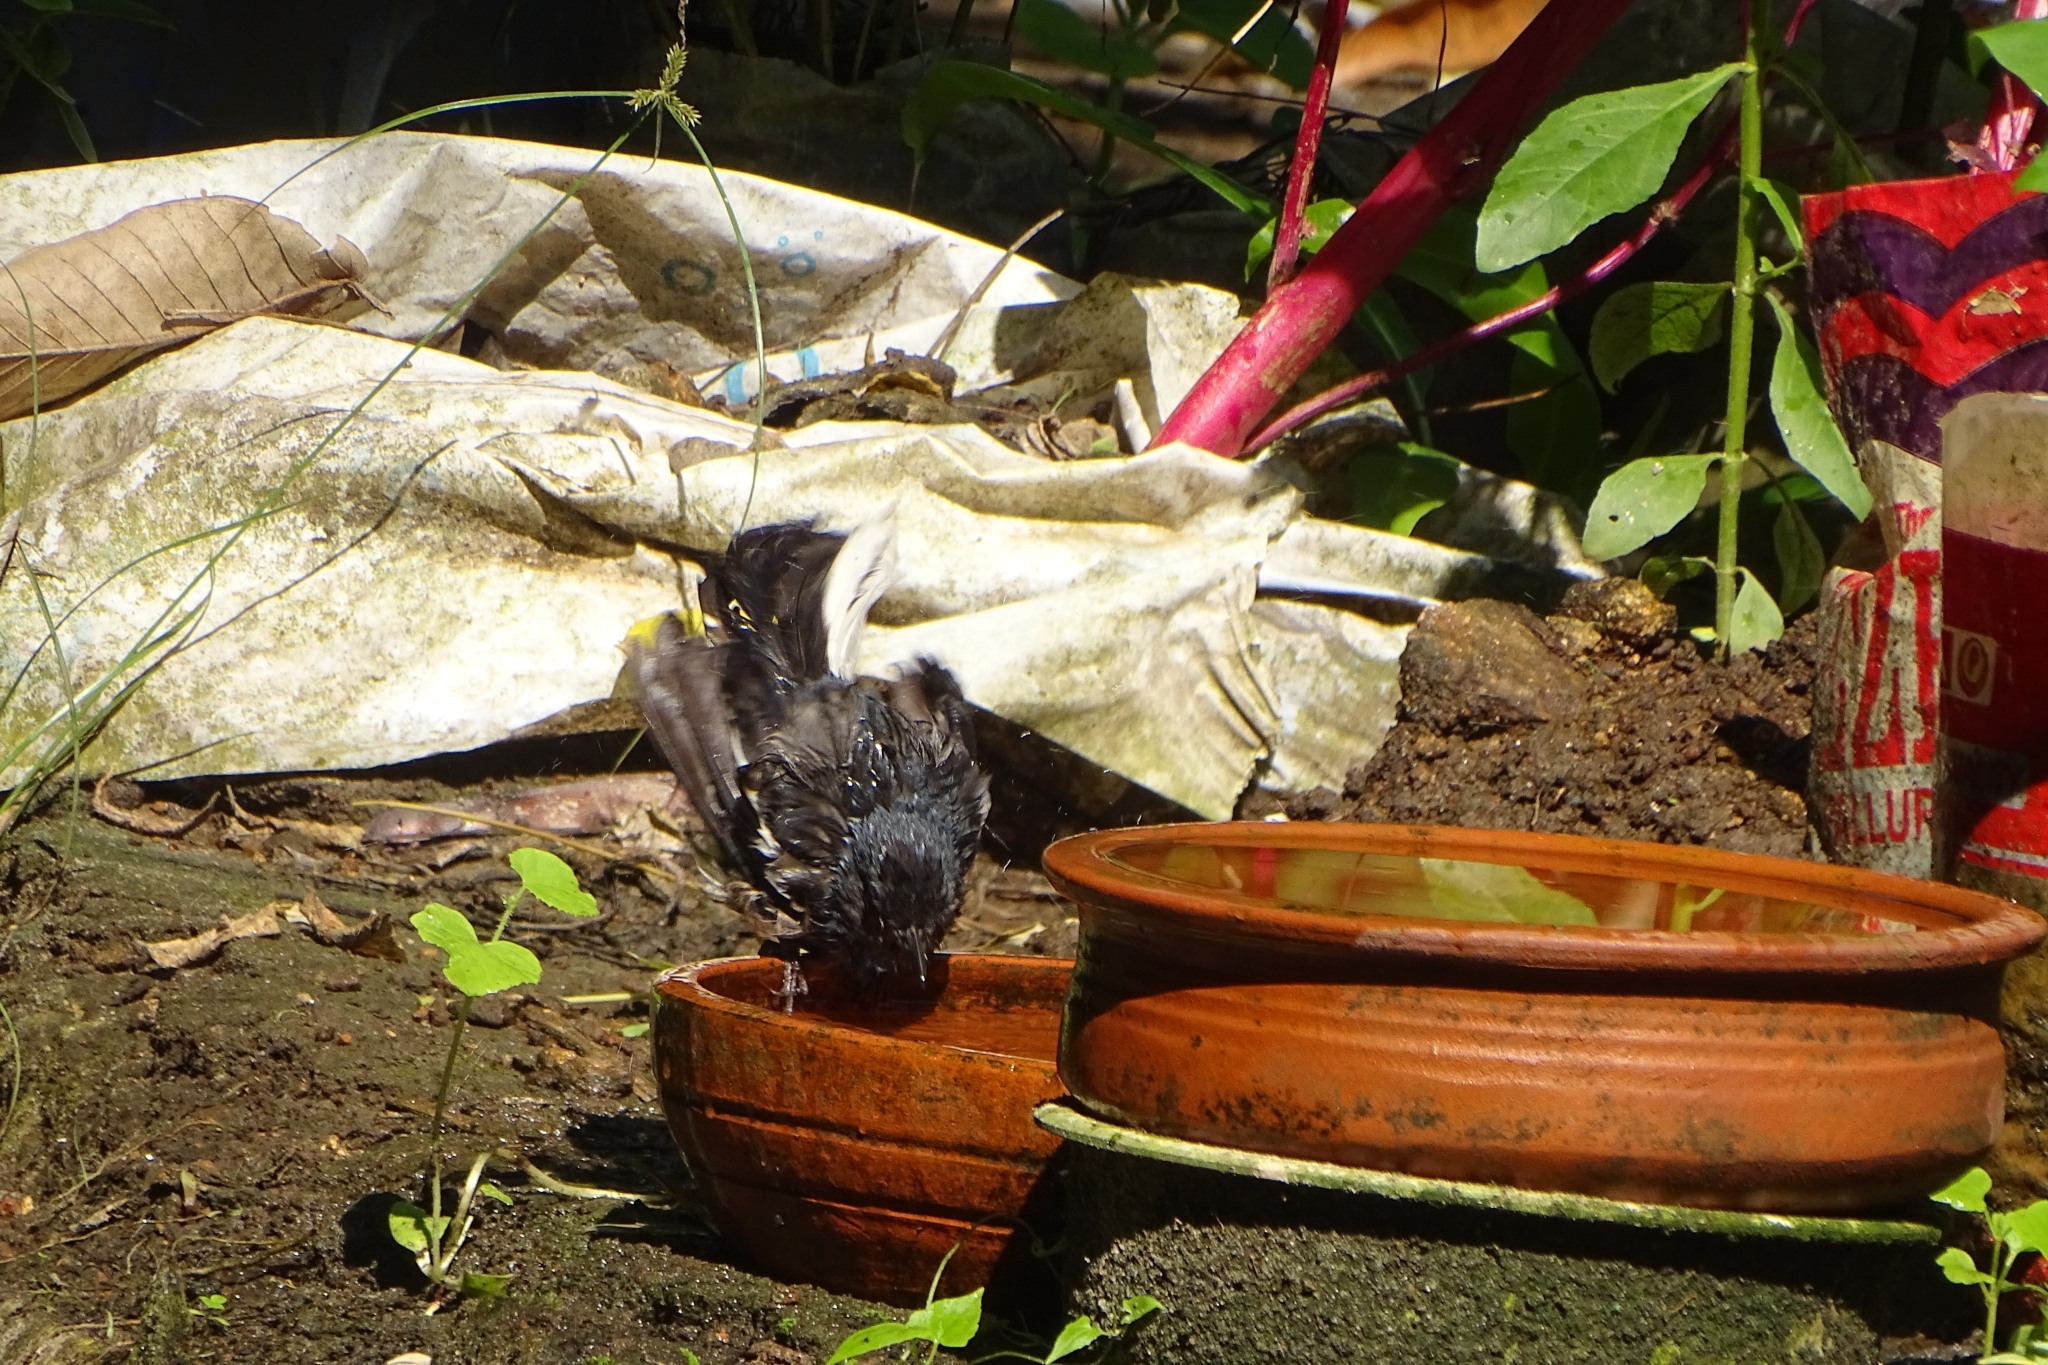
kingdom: Animalia
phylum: Chordata
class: Aves
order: Passeriformes
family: Muscicapidae
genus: Copsychus
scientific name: Copsychus saularis
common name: Oriental magpie-robin
